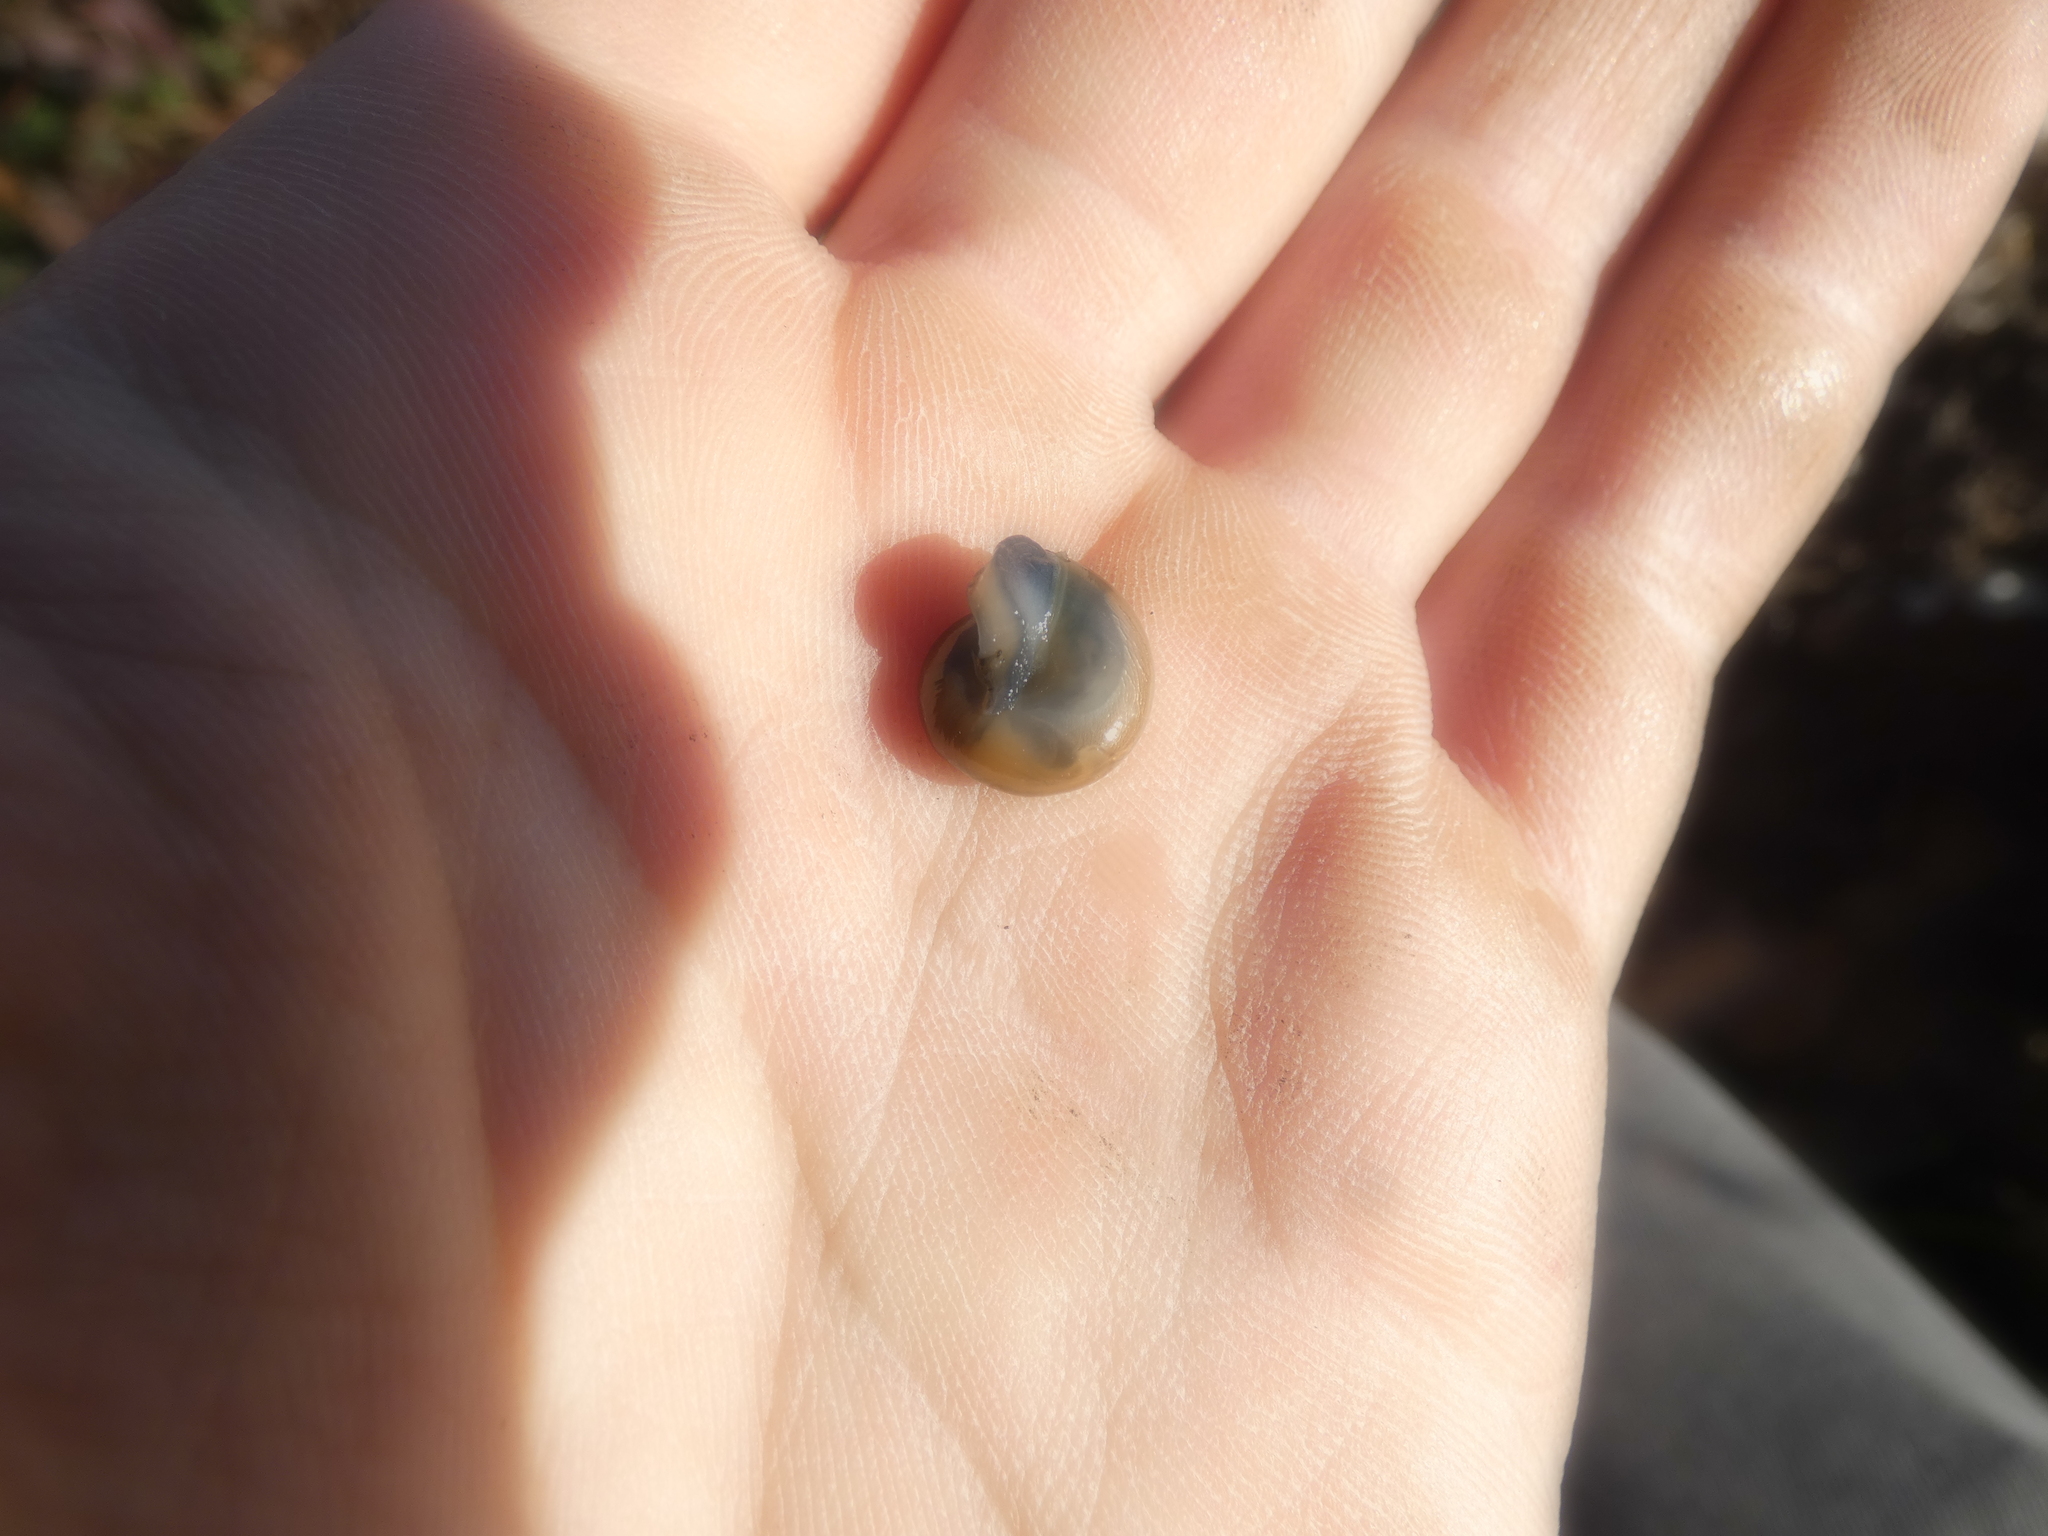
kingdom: Animalia
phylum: Mollusca
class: Gastropoda
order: Stylommatophora
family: Oxychilidae
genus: Morlina
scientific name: Morlina glabra
